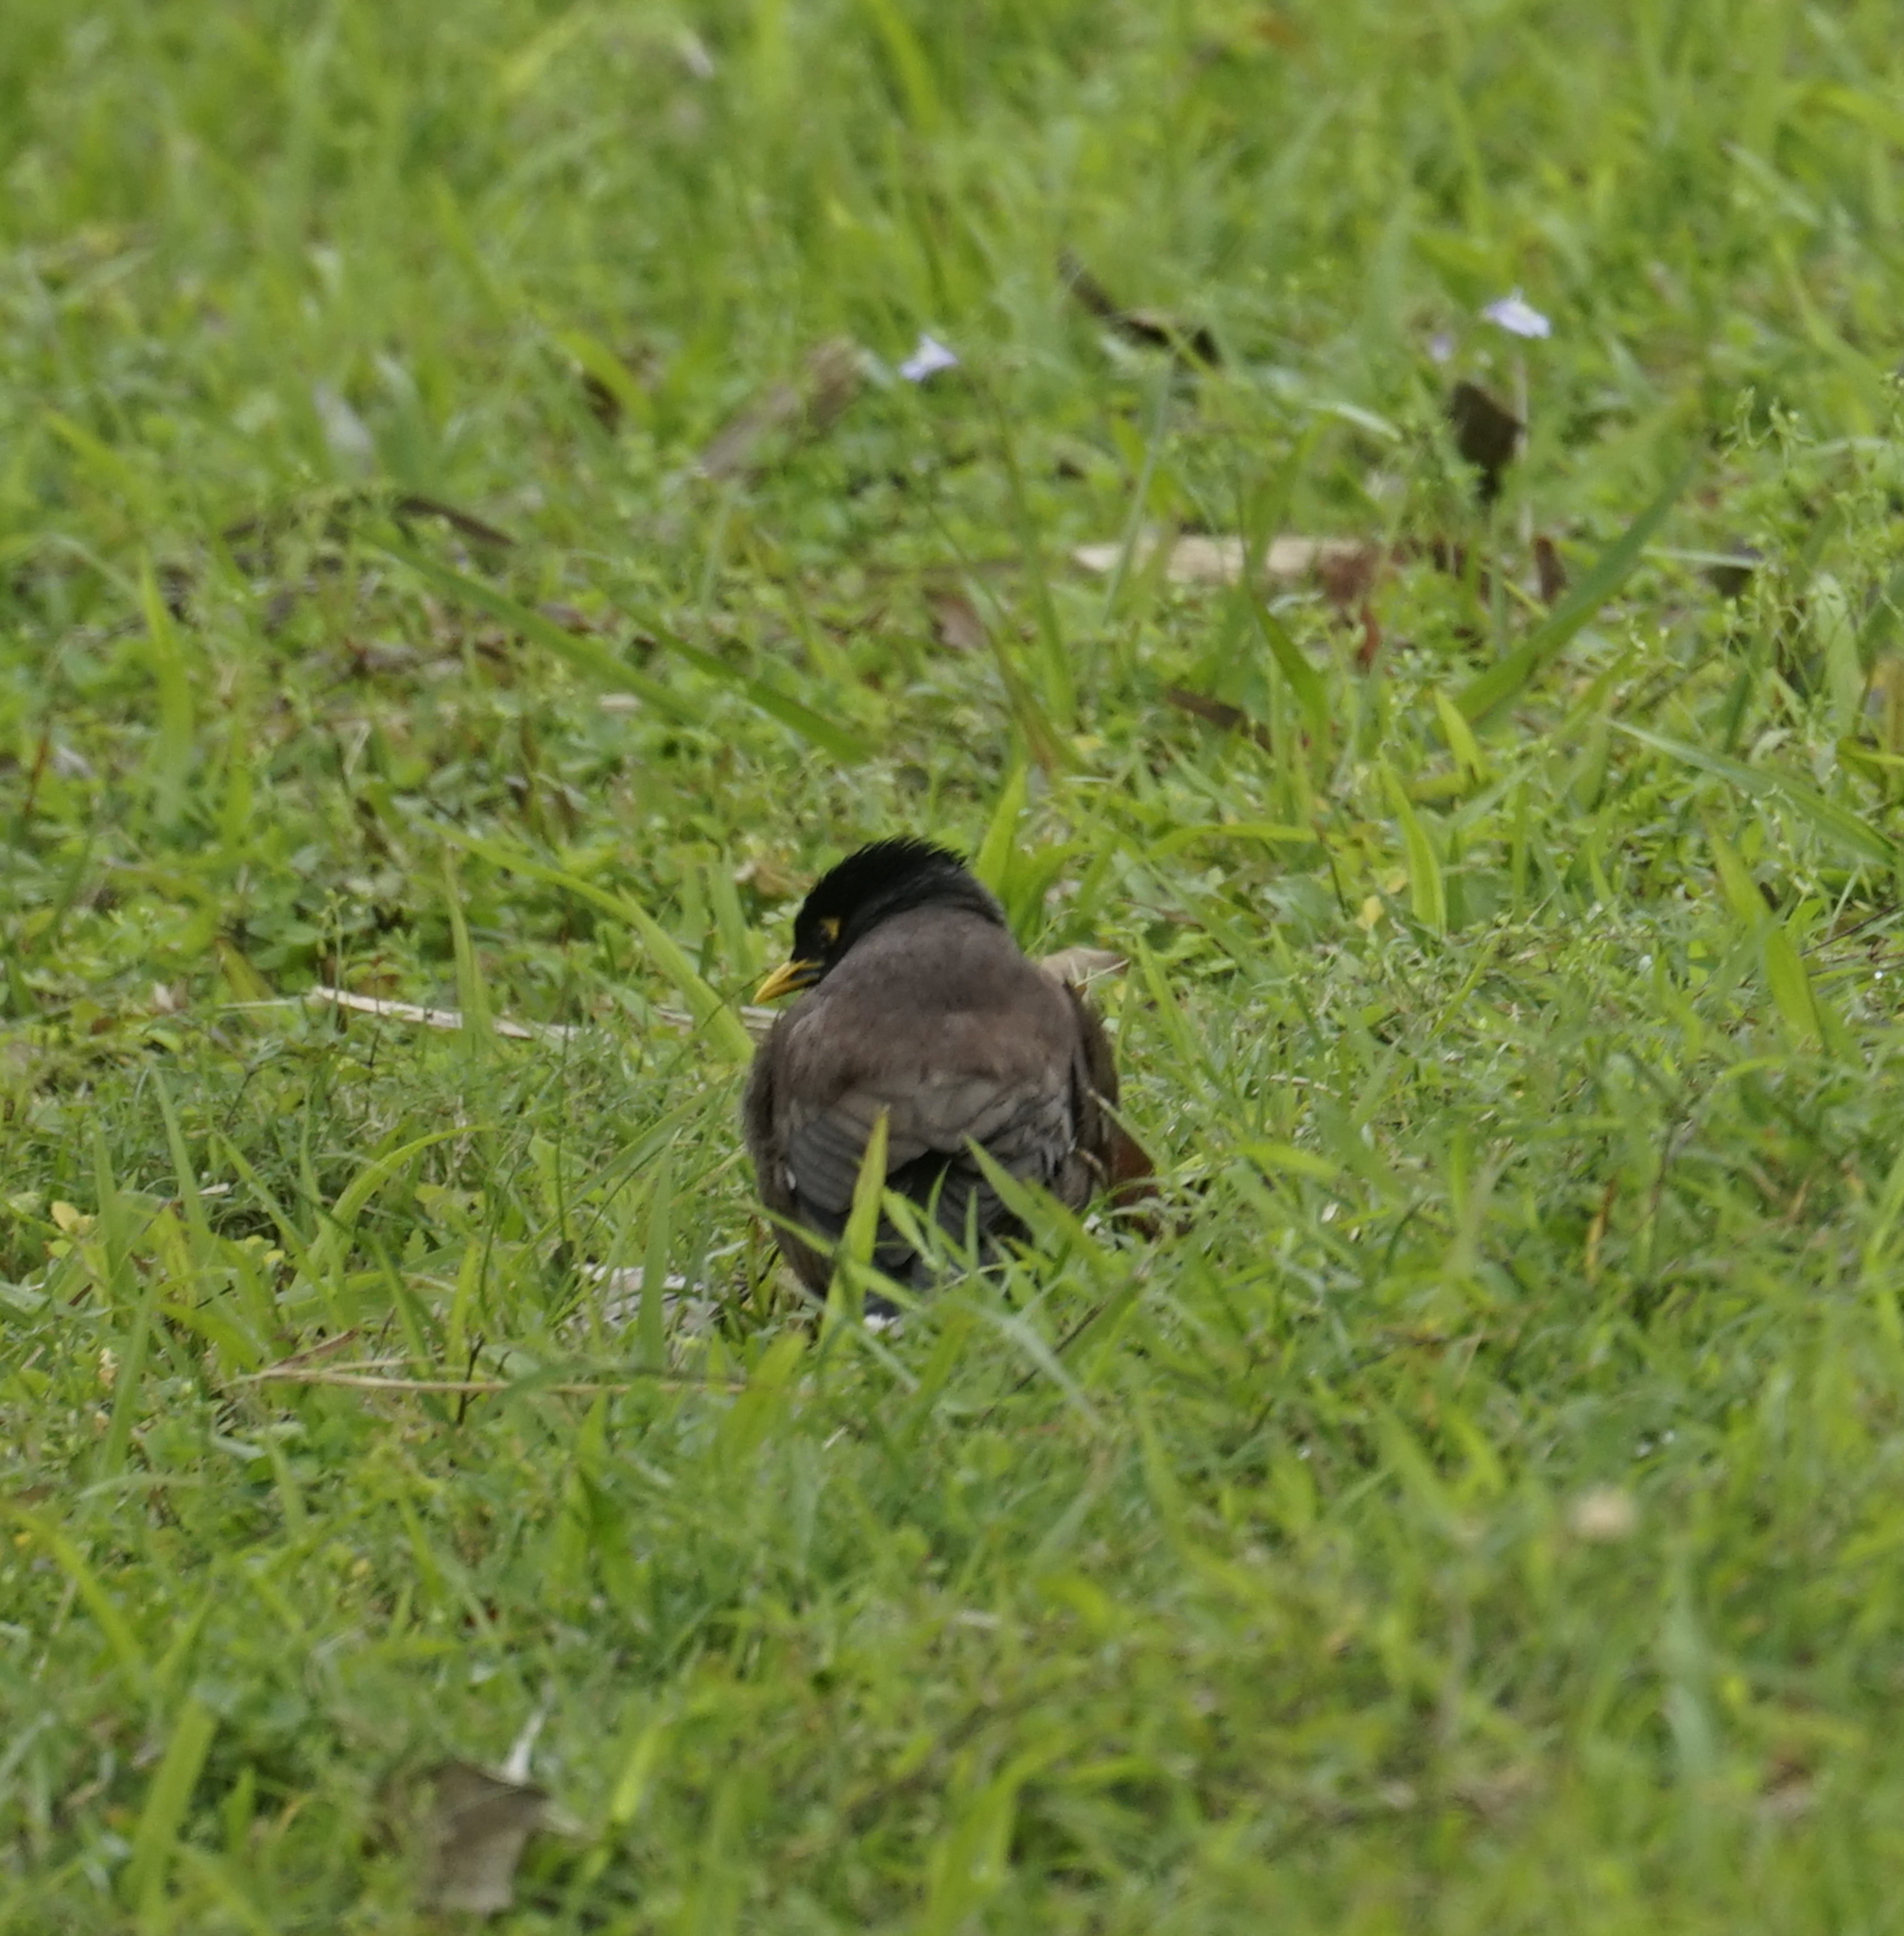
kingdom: Animalia
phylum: Chordata
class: Aves
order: Passeriformes
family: Sturnidae
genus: Acridotheres
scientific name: Acridotheres tristis
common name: Common myna
